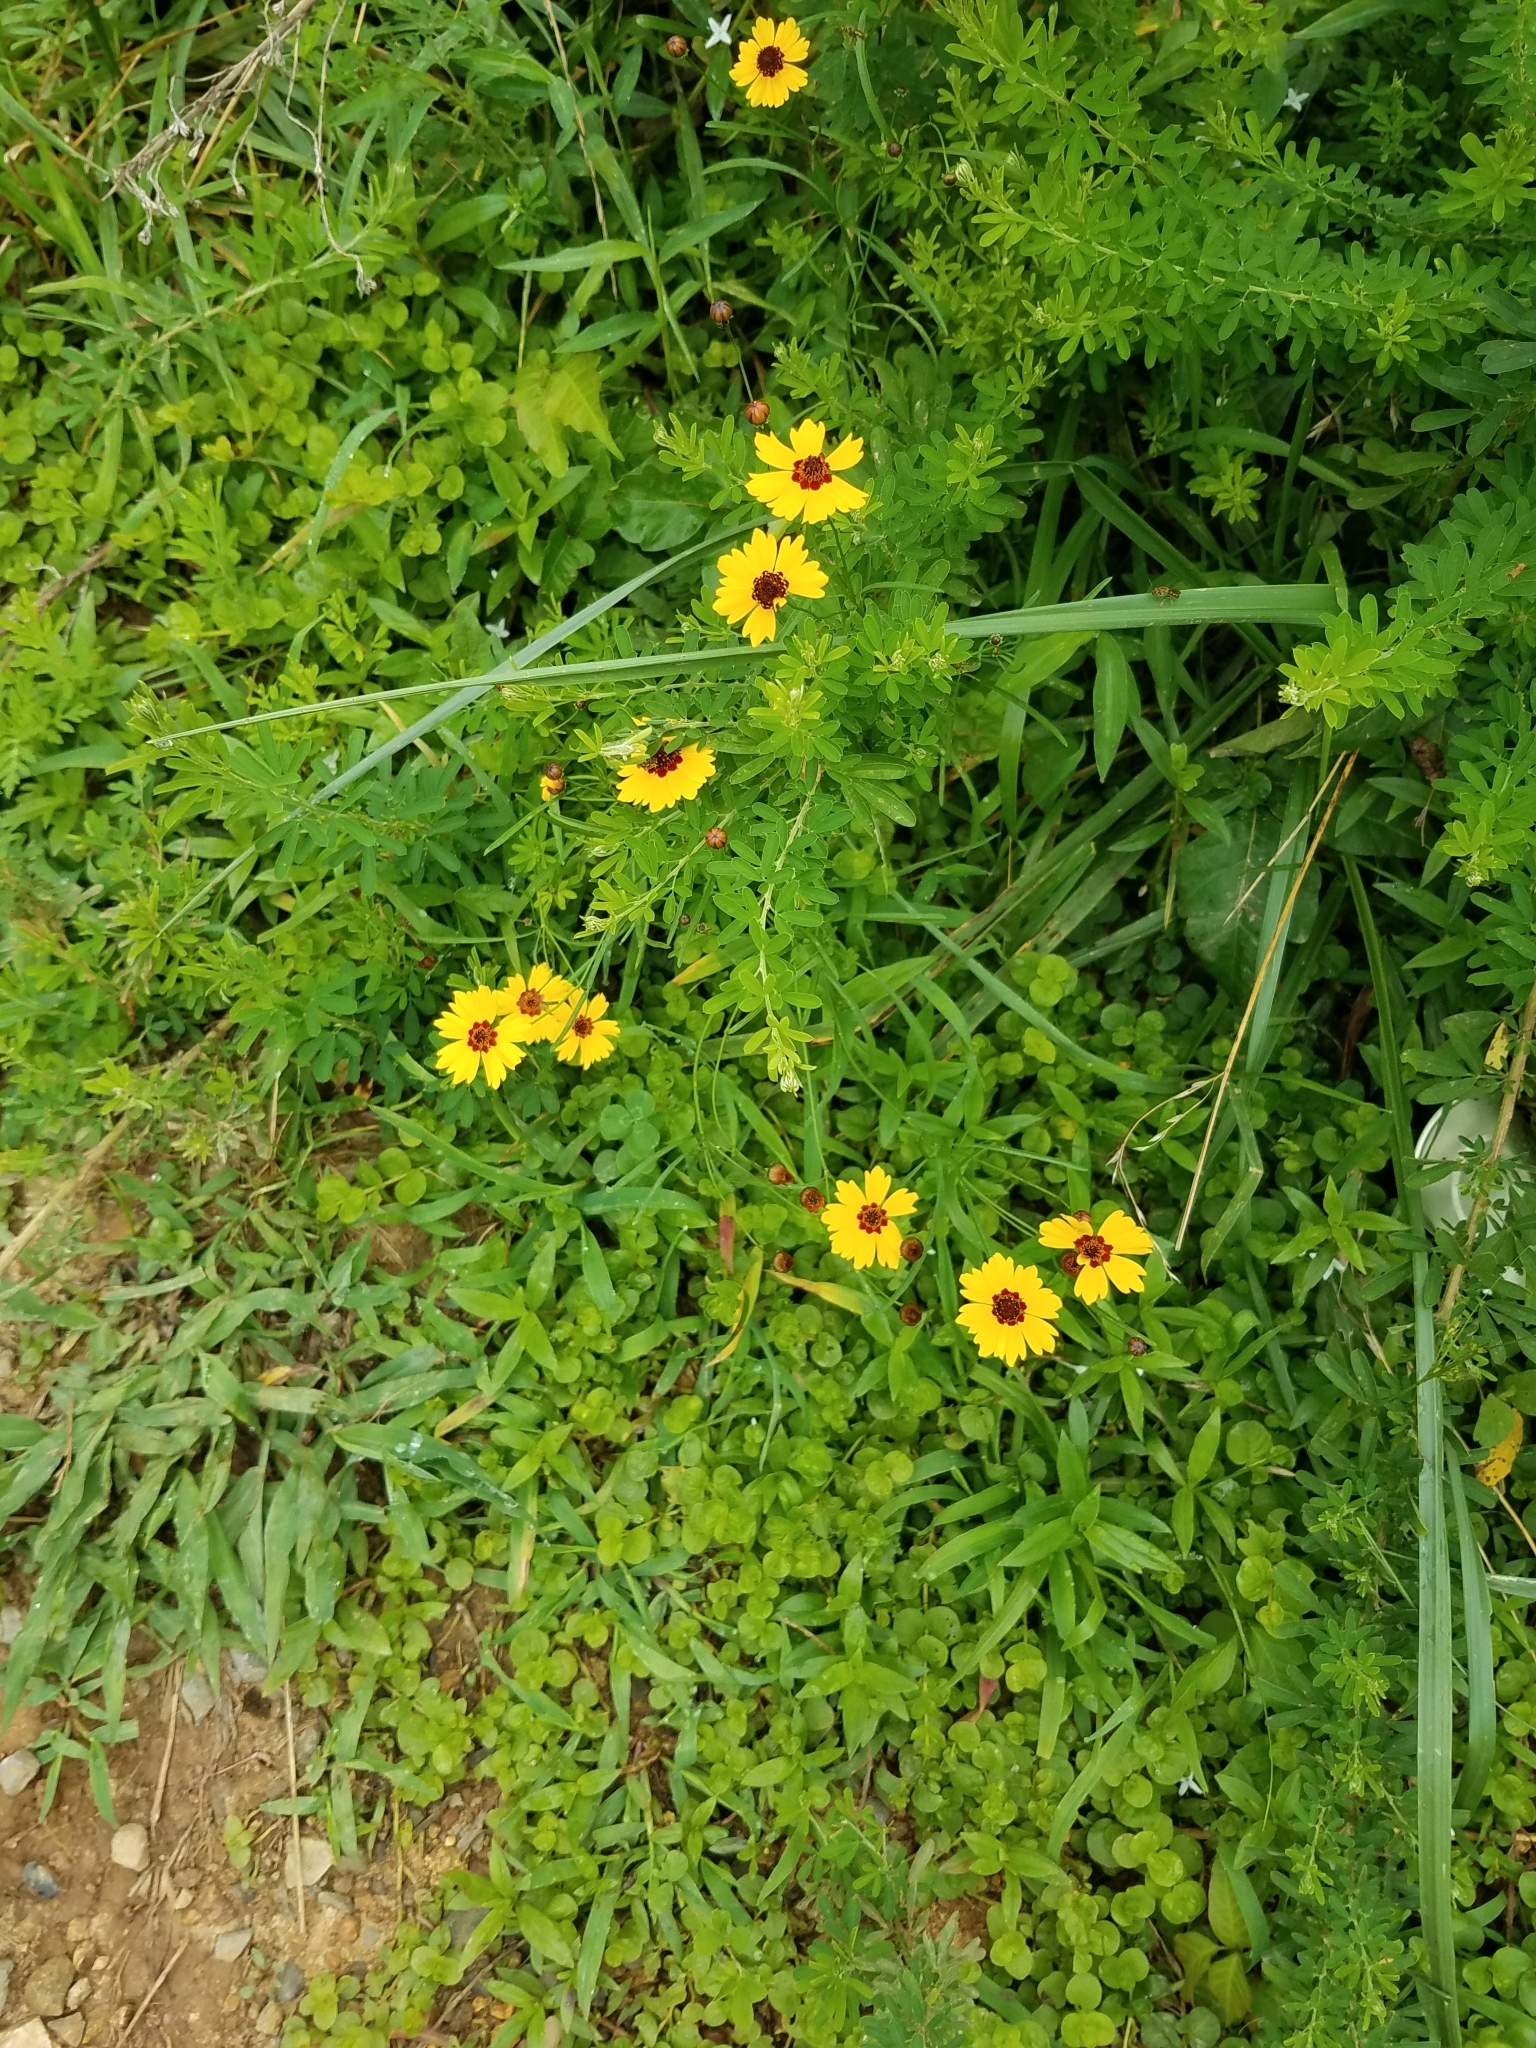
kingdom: Plantae
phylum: Tracheophyta
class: Magnoliopsida
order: Asterales
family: Asteraceae
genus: Coreopsis
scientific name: Coreopsis tinctoria
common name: Garden tickseed
